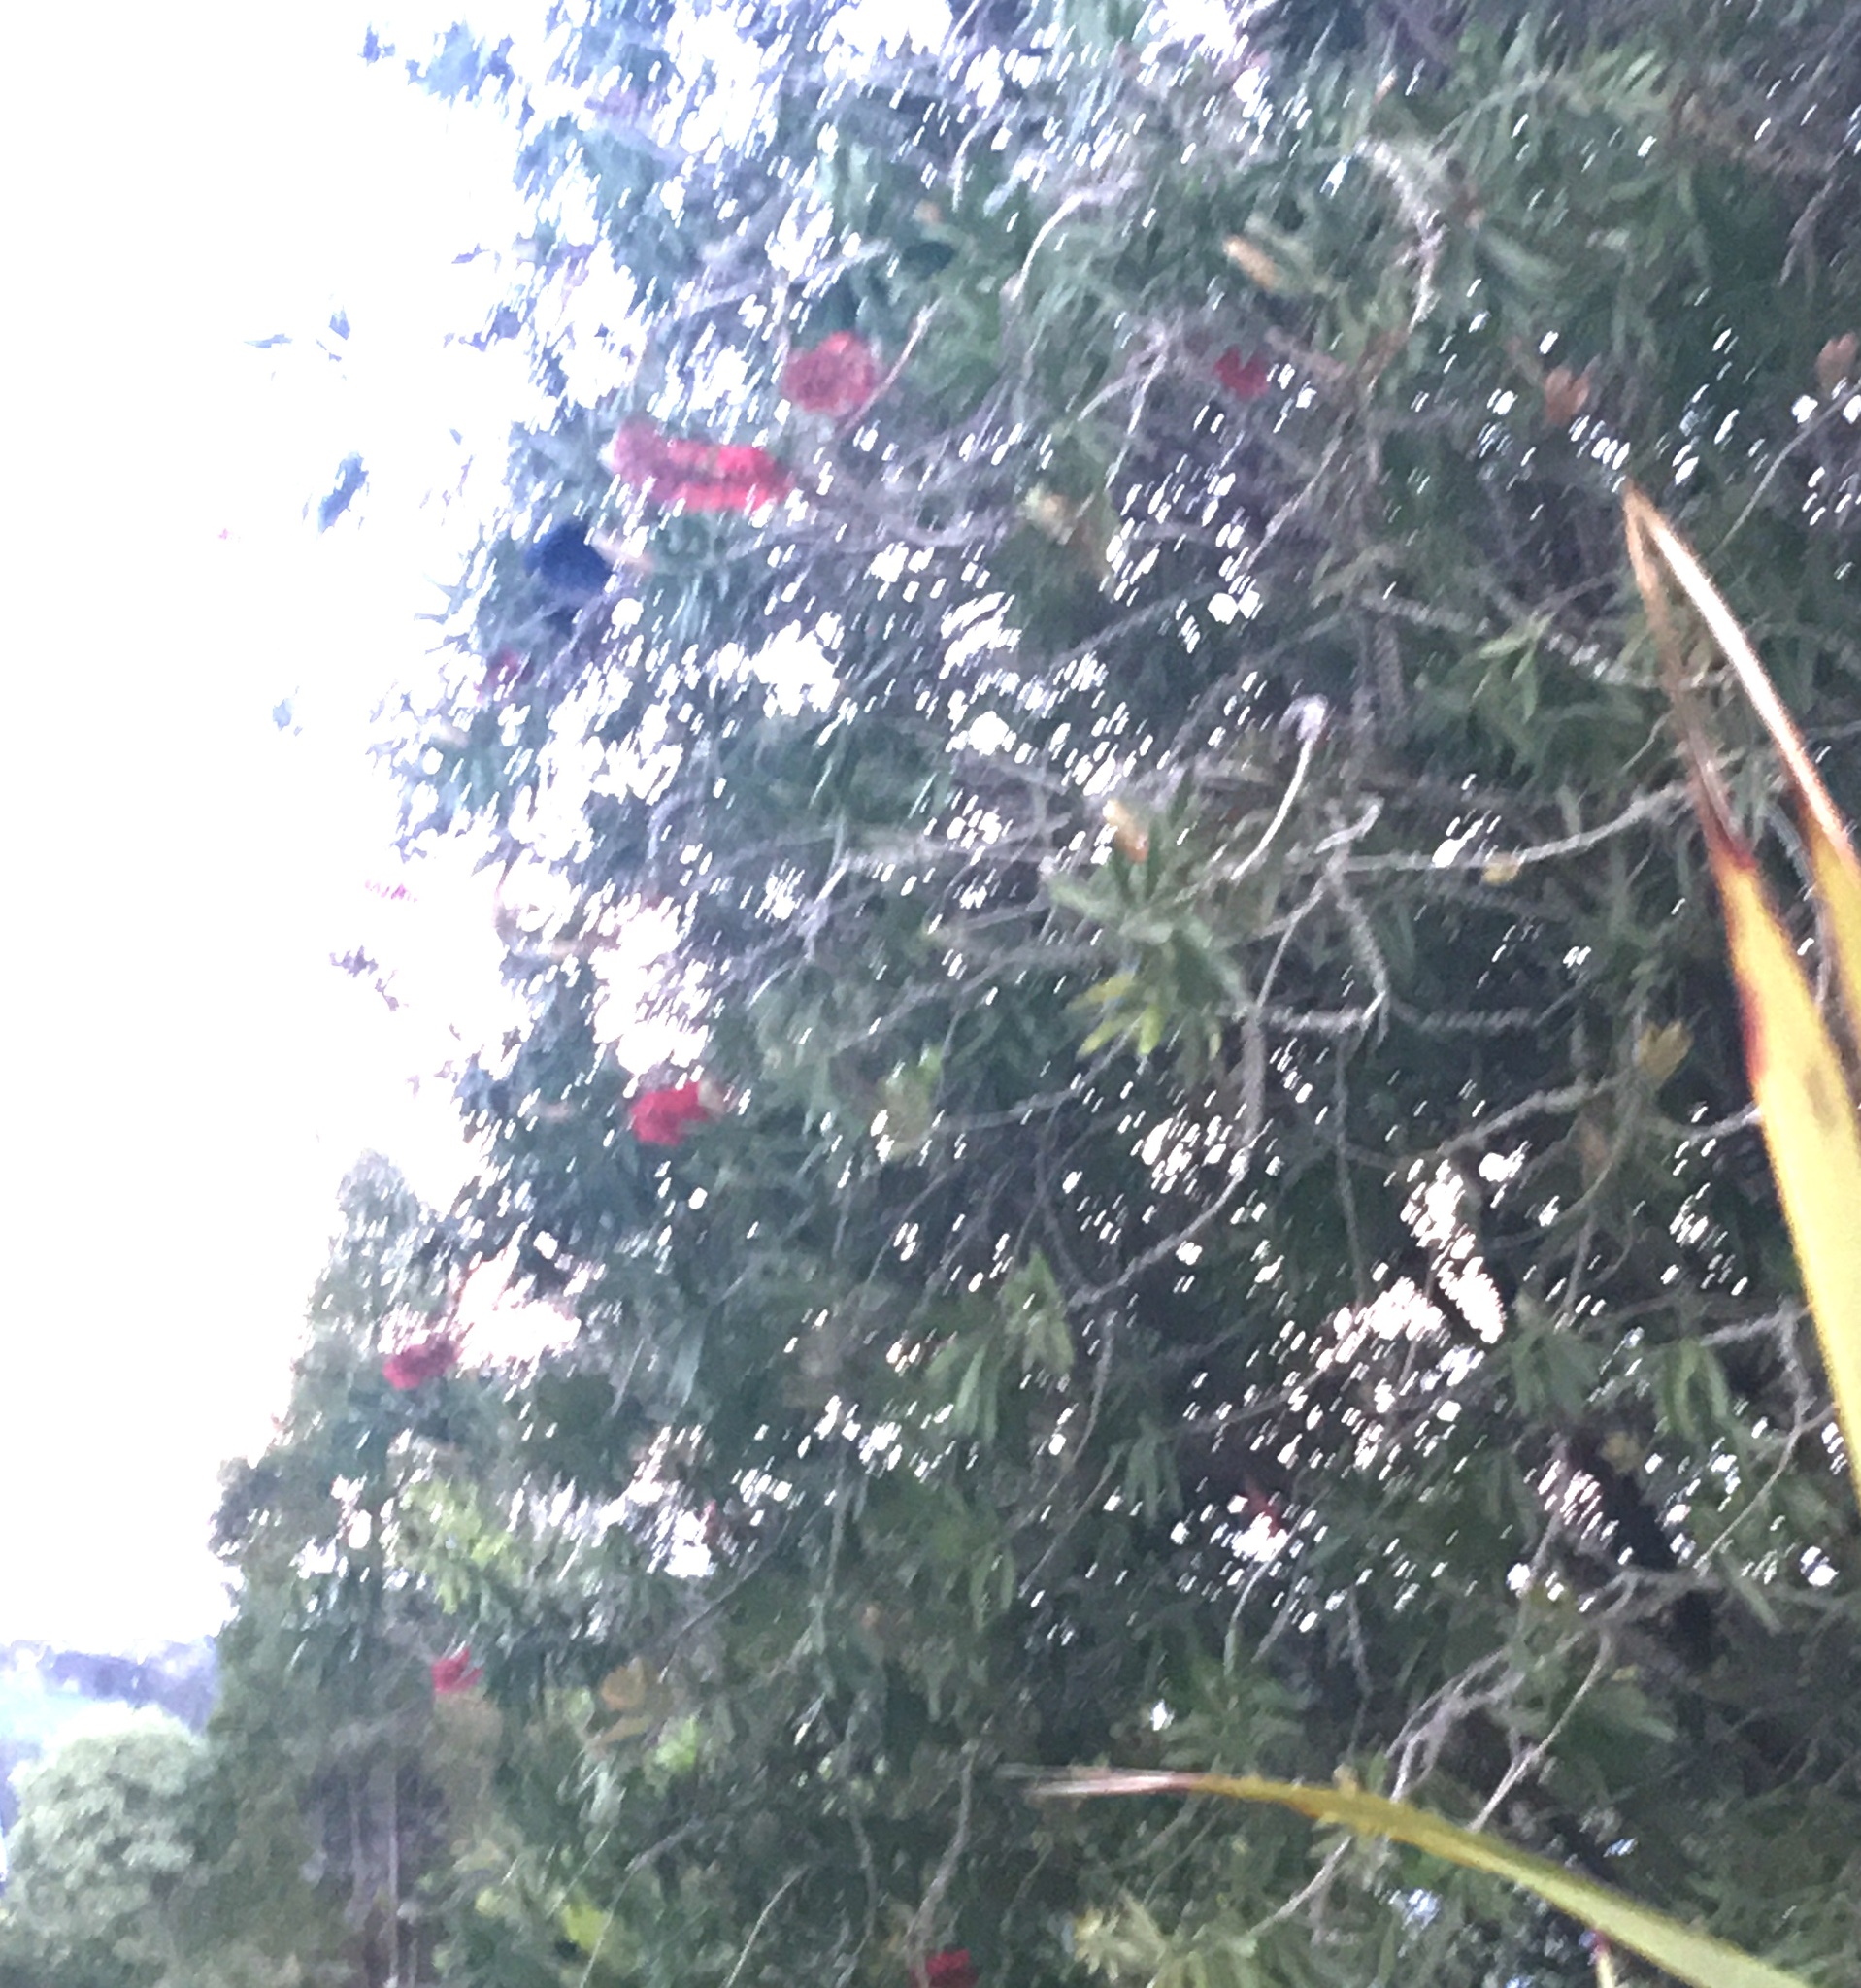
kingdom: Animalia
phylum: Chordata
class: Aves
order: Passeriformes
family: Meliphagidae
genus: Prosthemadera
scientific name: Prosthemadera novaeseelandiae
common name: Tui
